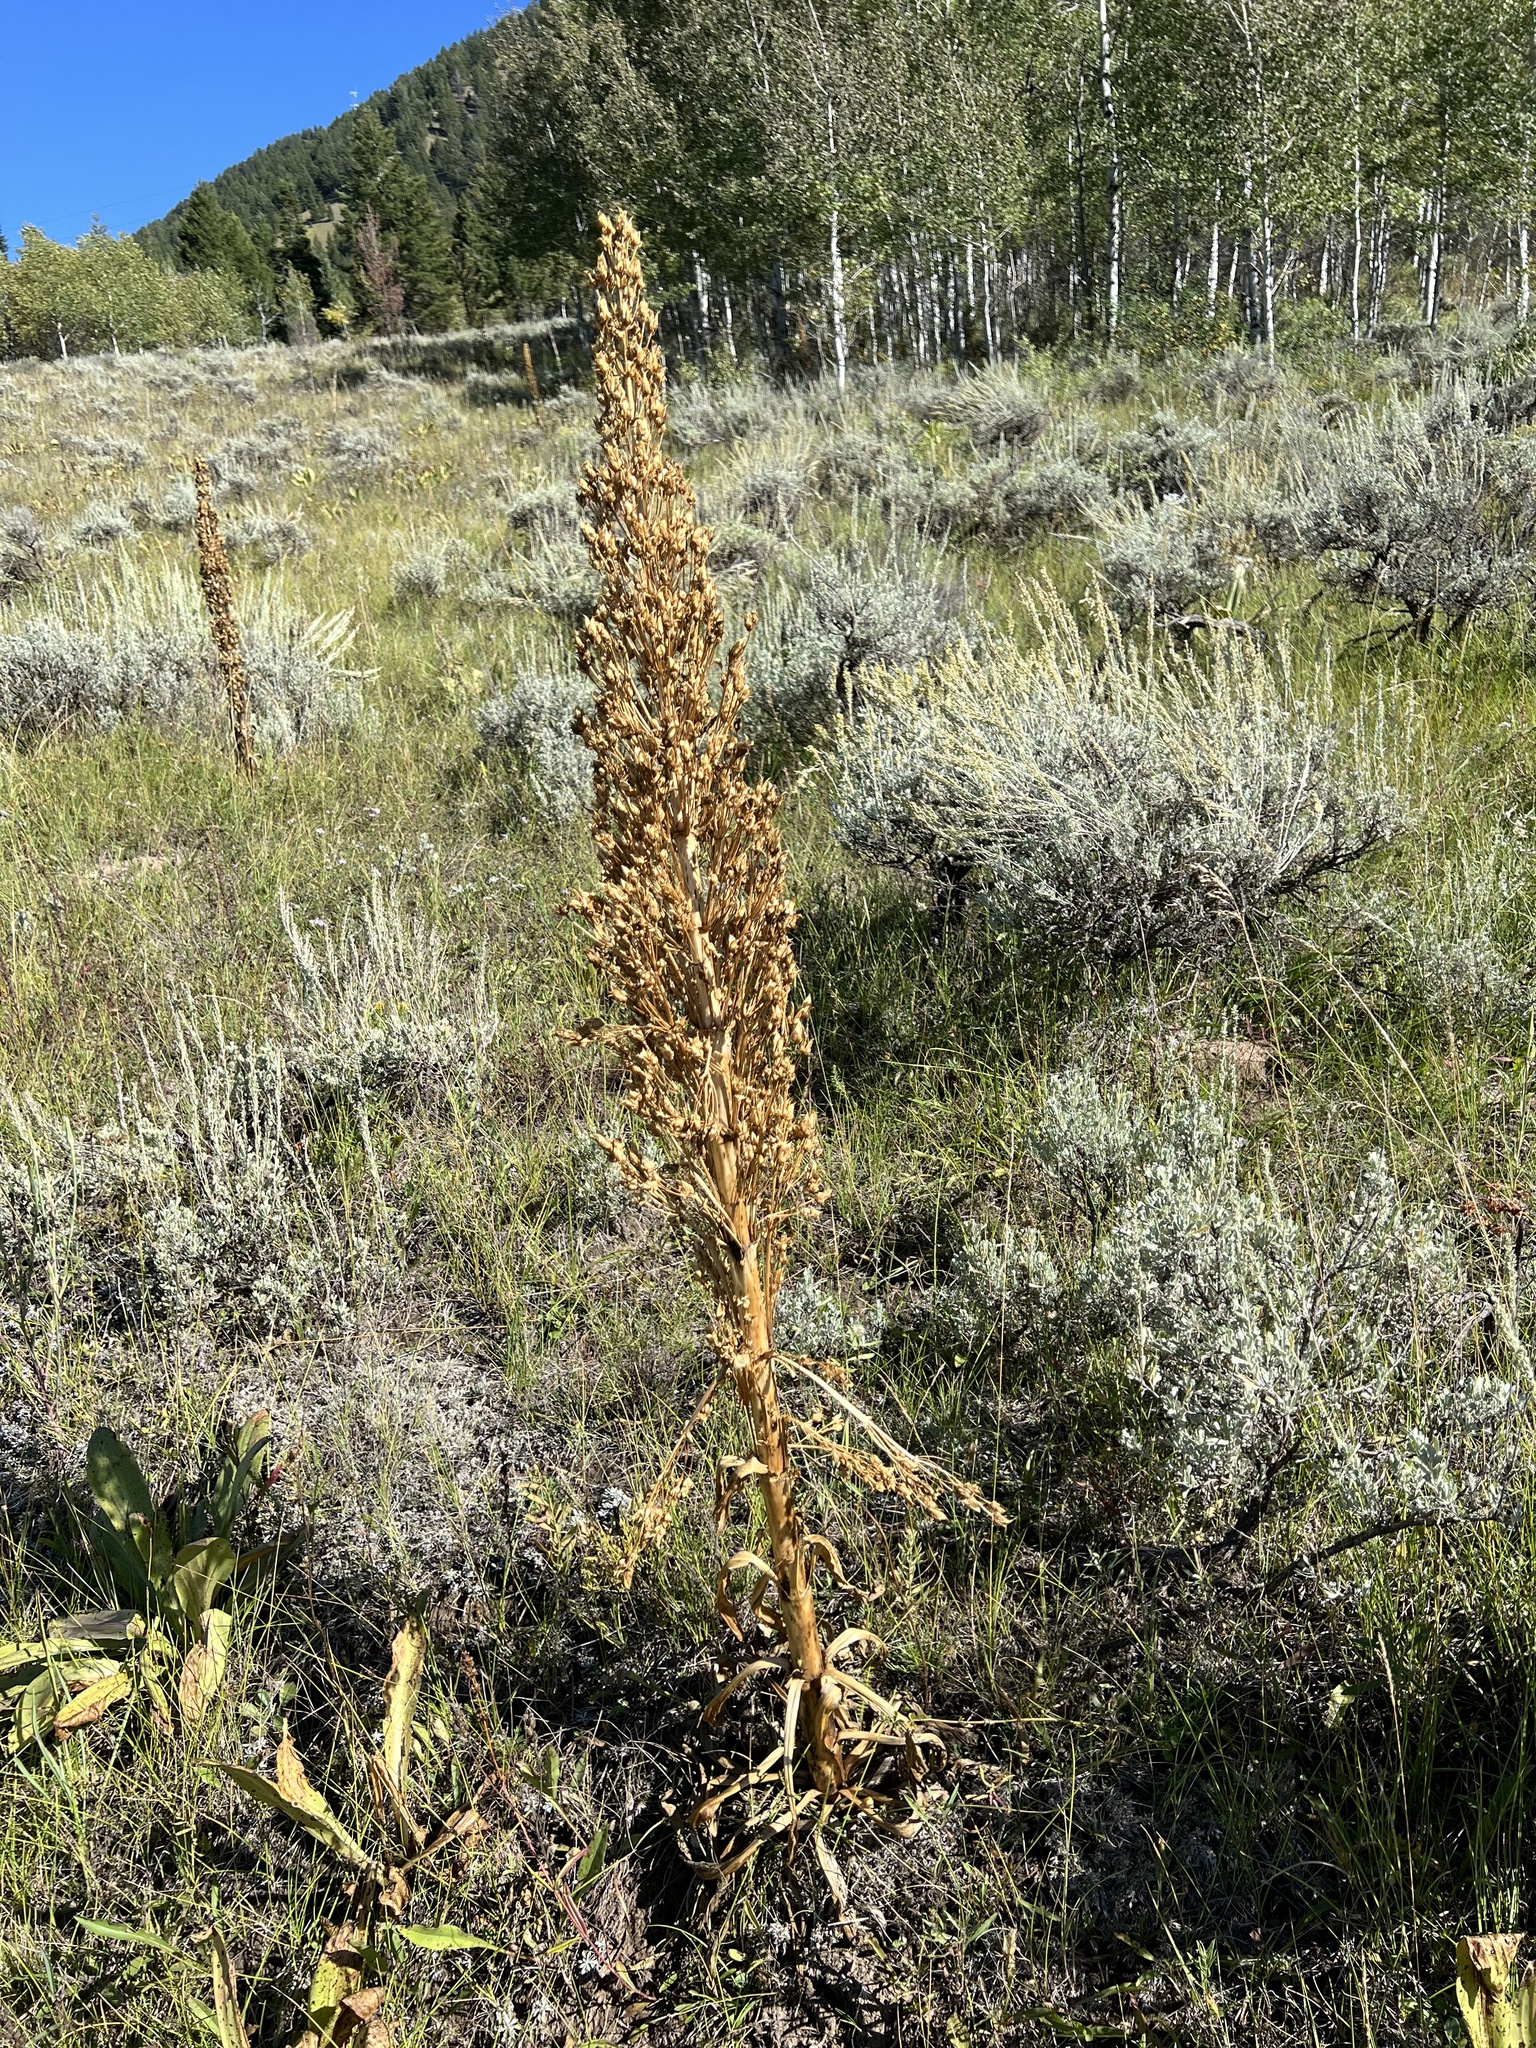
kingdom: Plantae
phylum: Tracheophyta
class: Magnoliopsida
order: Gentianales
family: Gentianaceae
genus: Frasera
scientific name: Frasera speciosa
